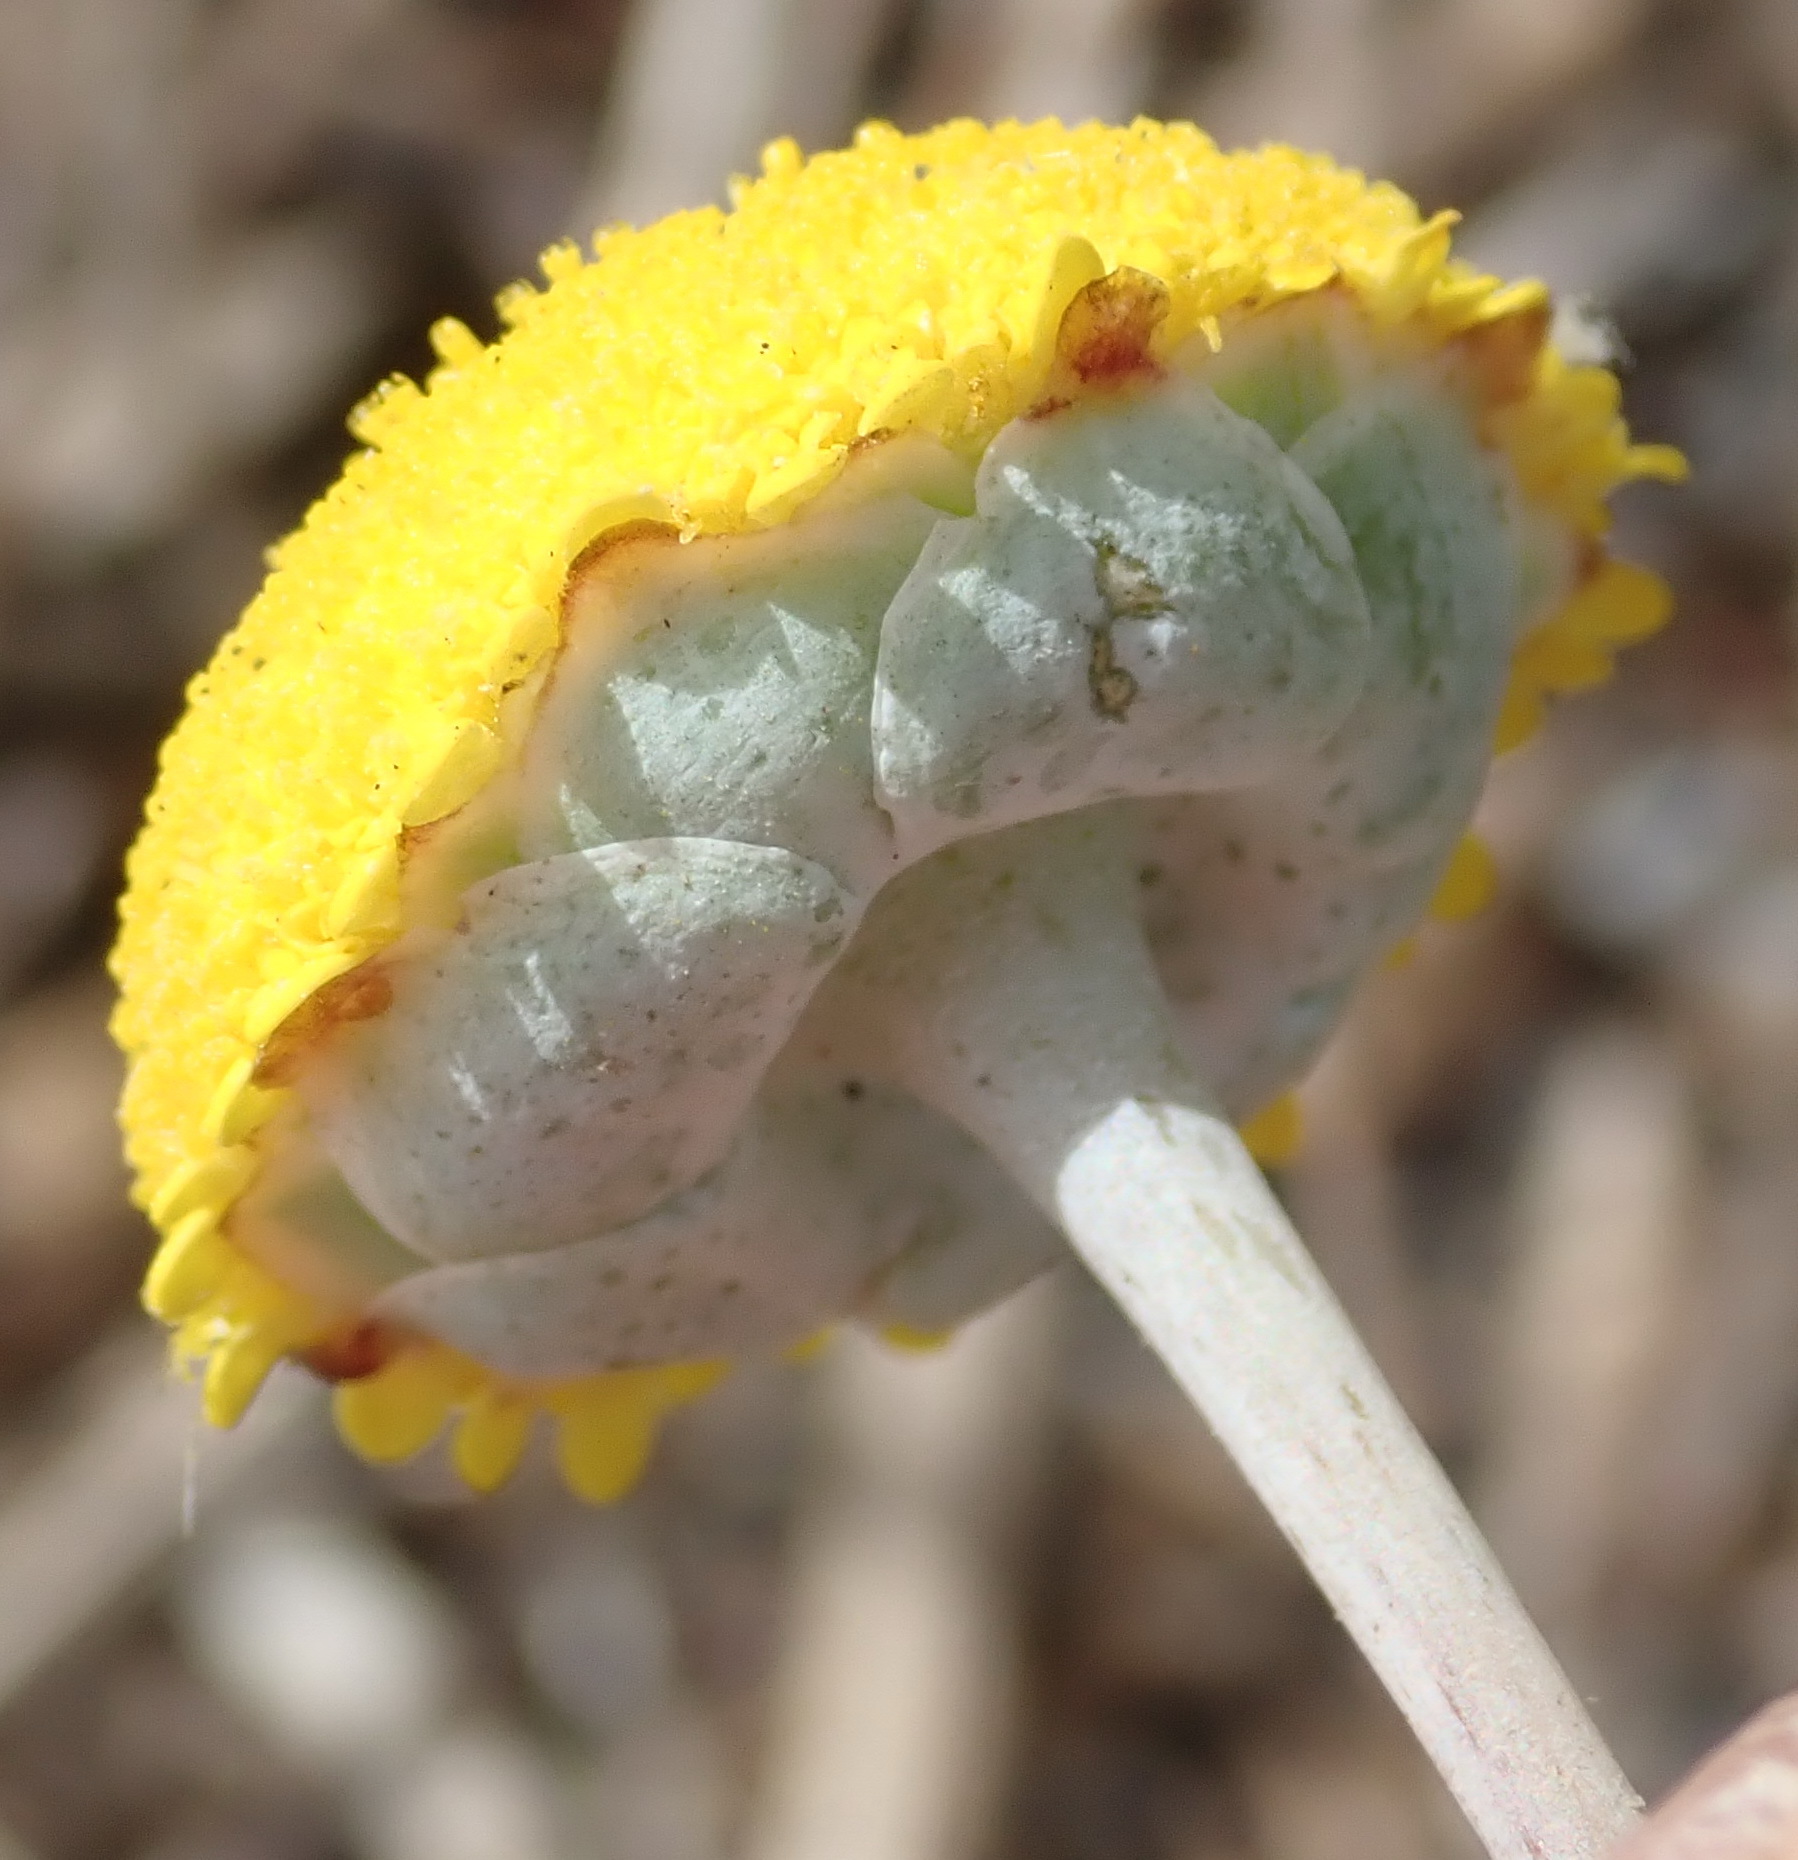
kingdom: Plantae
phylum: Tracheophyta
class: Magnoliopsida
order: Asterales
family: Asteraceae
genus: Cotula
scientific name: Cotula discolor
